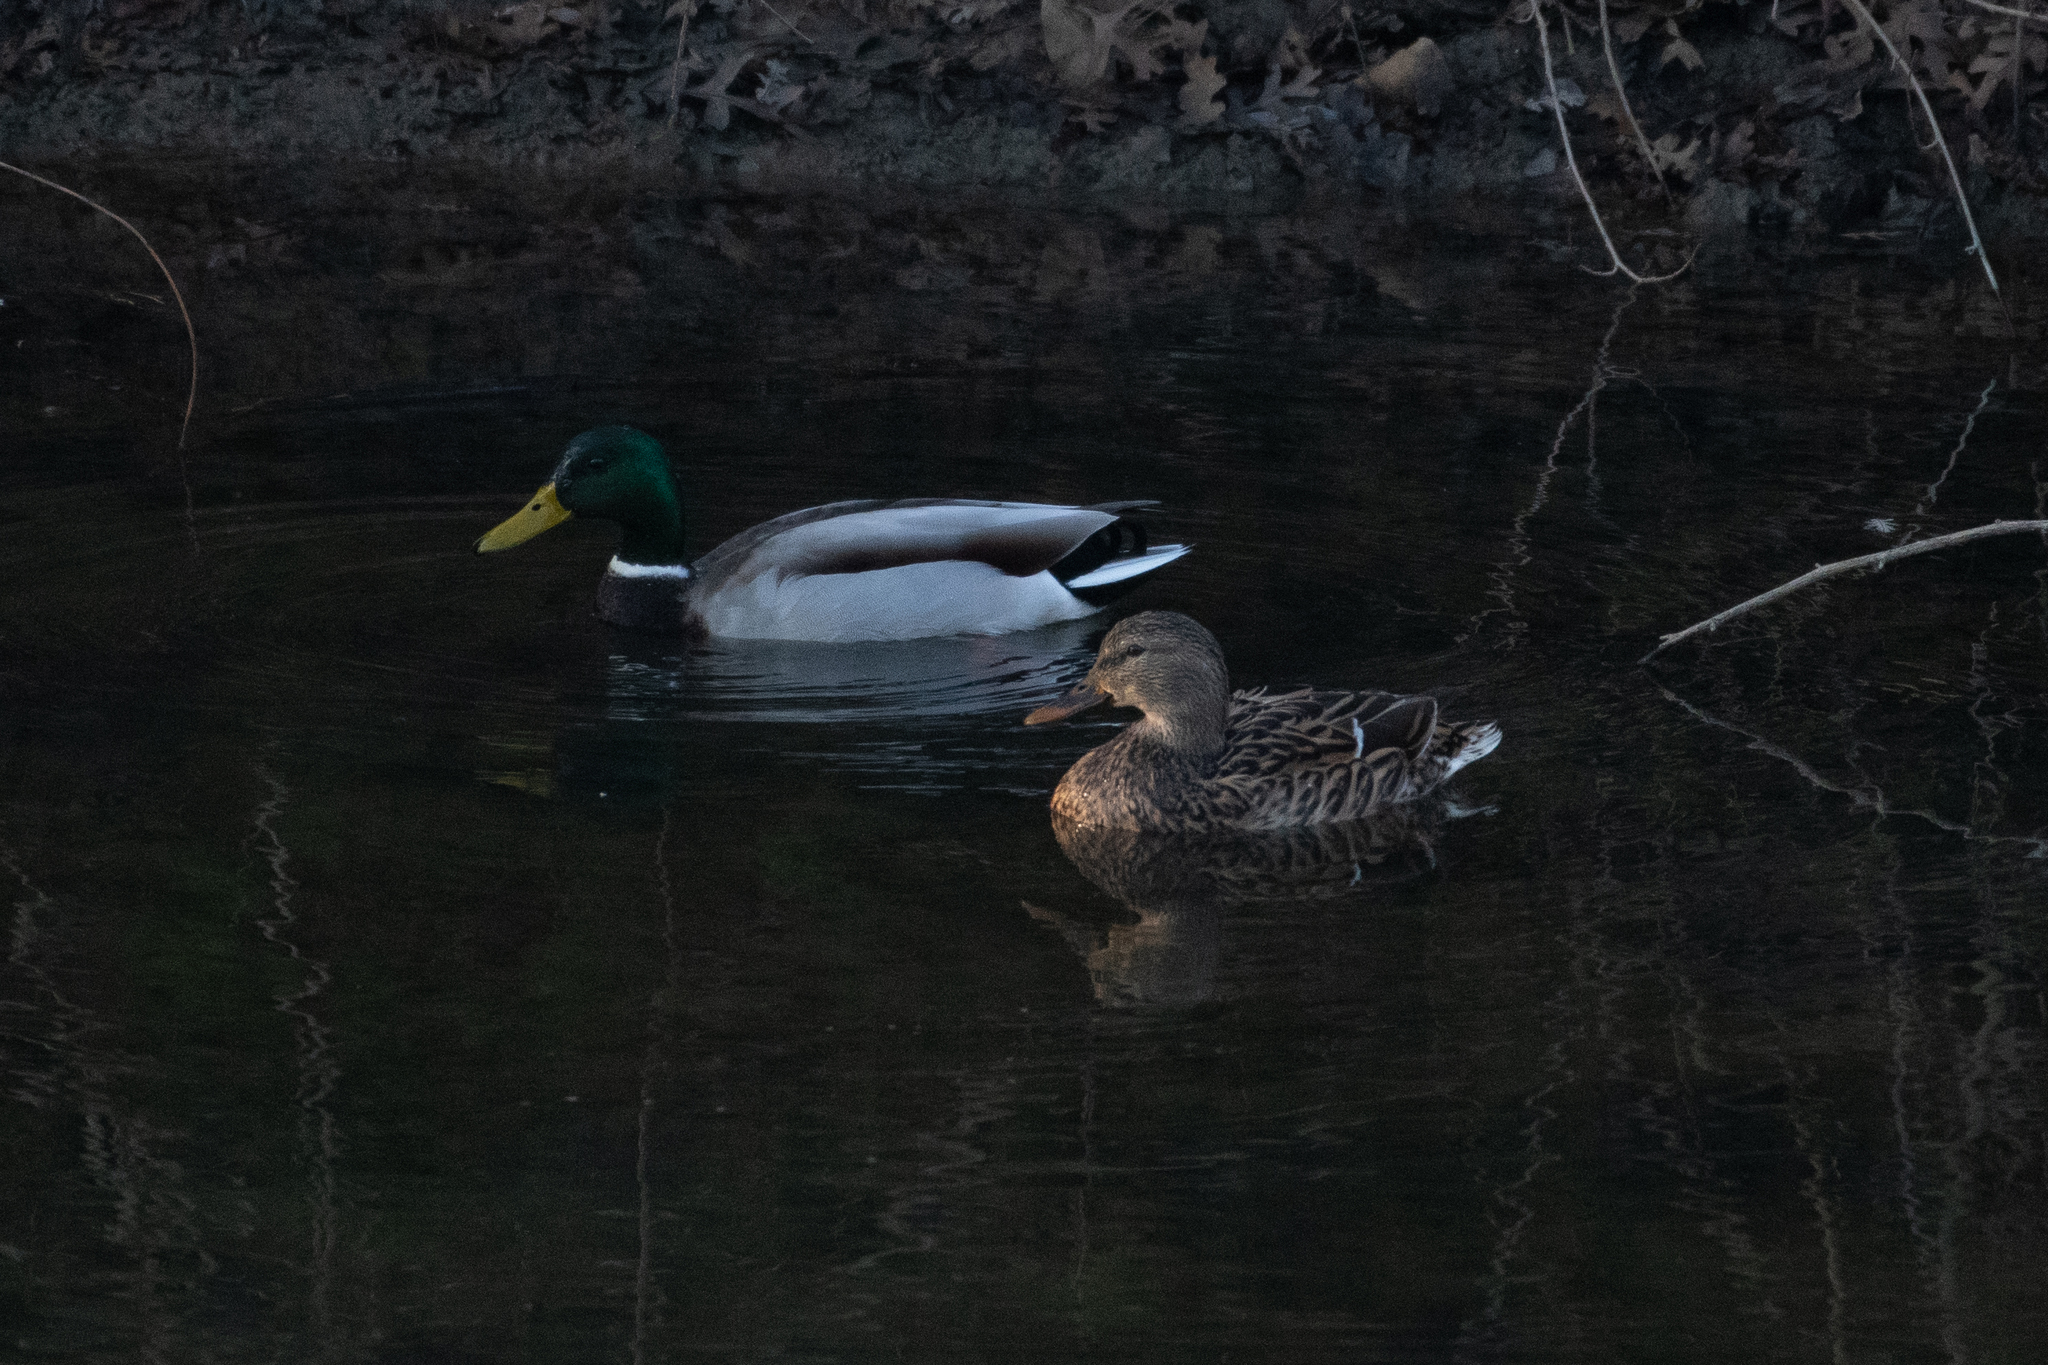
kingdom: Animalia
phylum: Chordata
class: Aves
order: Anseriformes
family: Anatidae
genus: Anas
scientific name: Anas platyrhynchos
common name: Mallard
